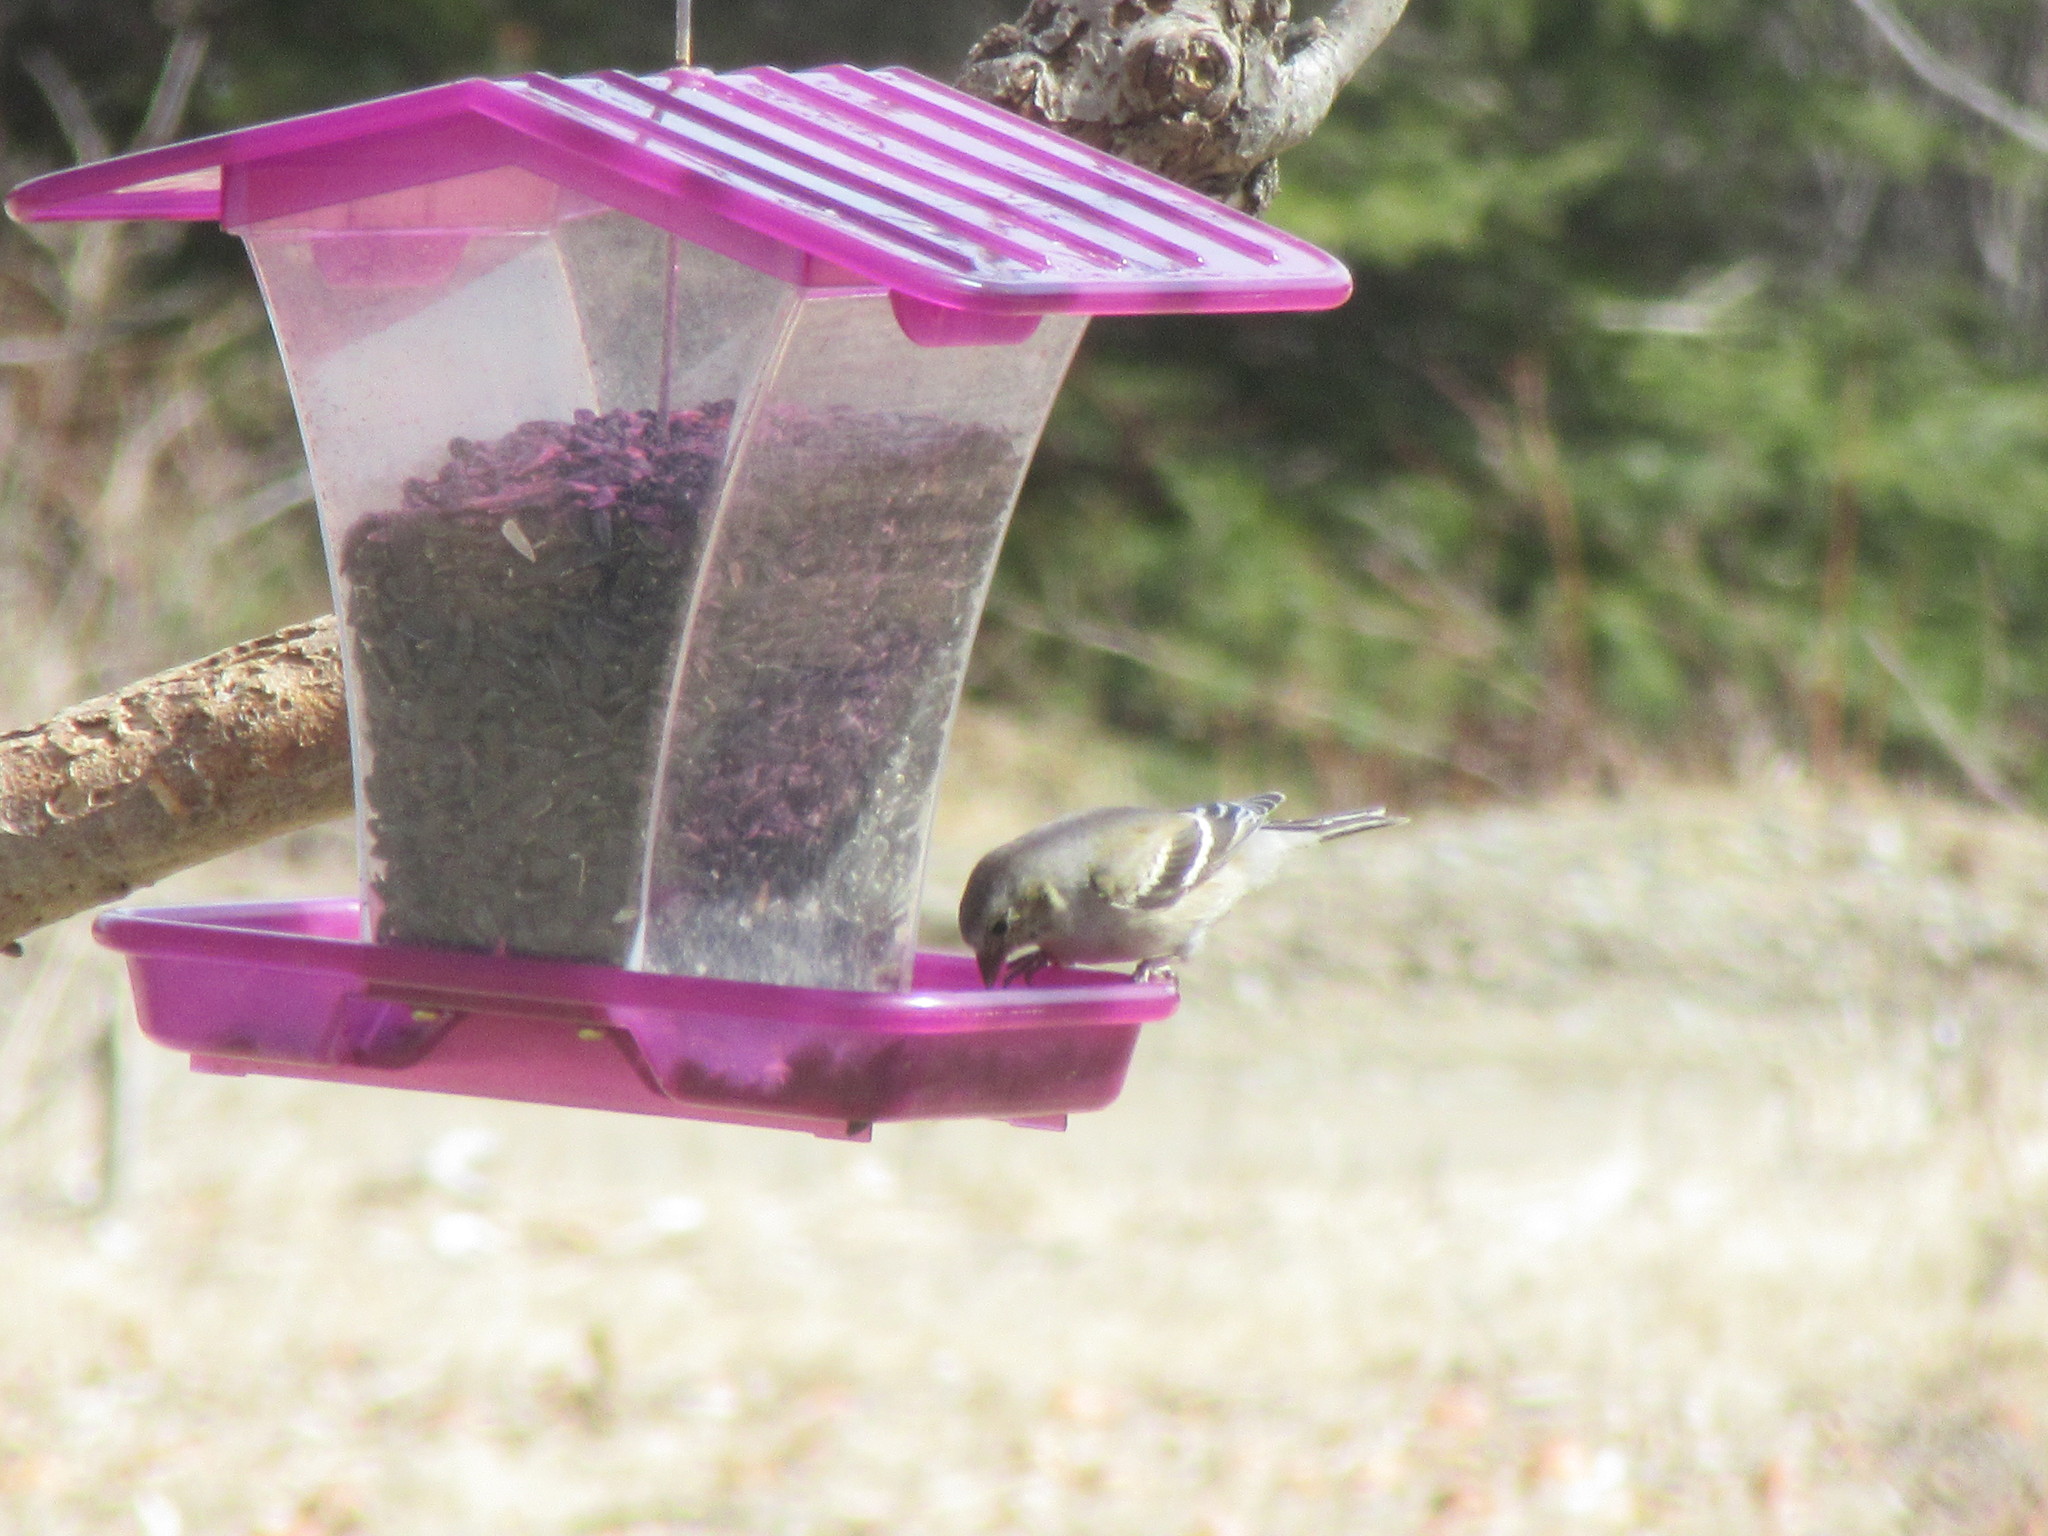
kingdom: Animalia
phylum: Chordata
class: Aves
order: Passeriformes
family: Fringillidae
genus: Spinus
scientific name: Spinus tristis
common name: American goldfinch
